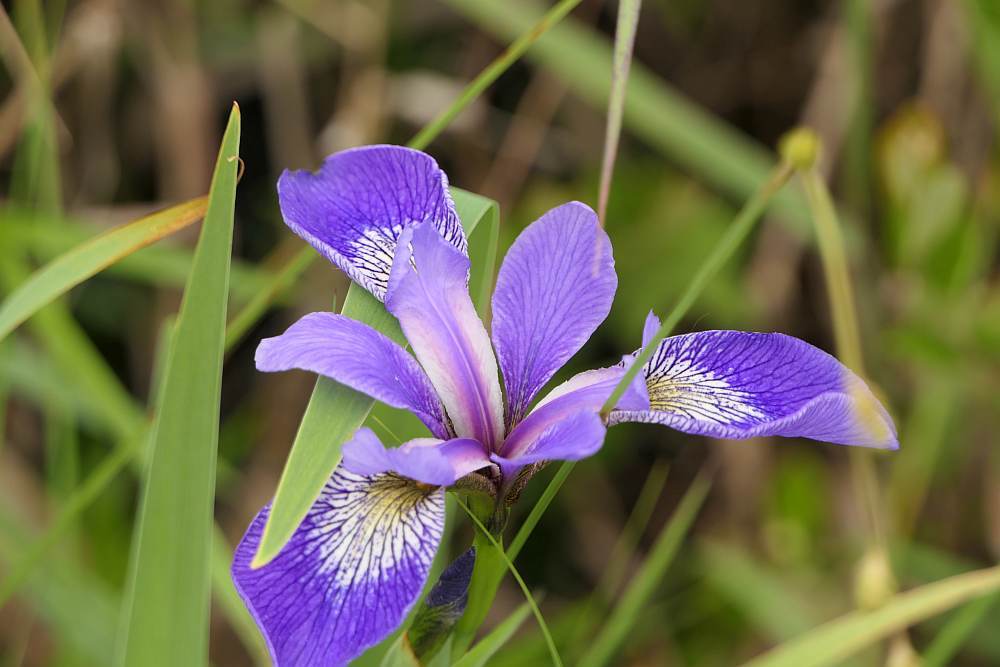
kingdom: Plantae
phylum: Tracheophyta
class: Liliopsida
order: Asparagales
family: Iridaceae
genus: Iris
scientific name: Iris versicolor
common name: Purple iris
